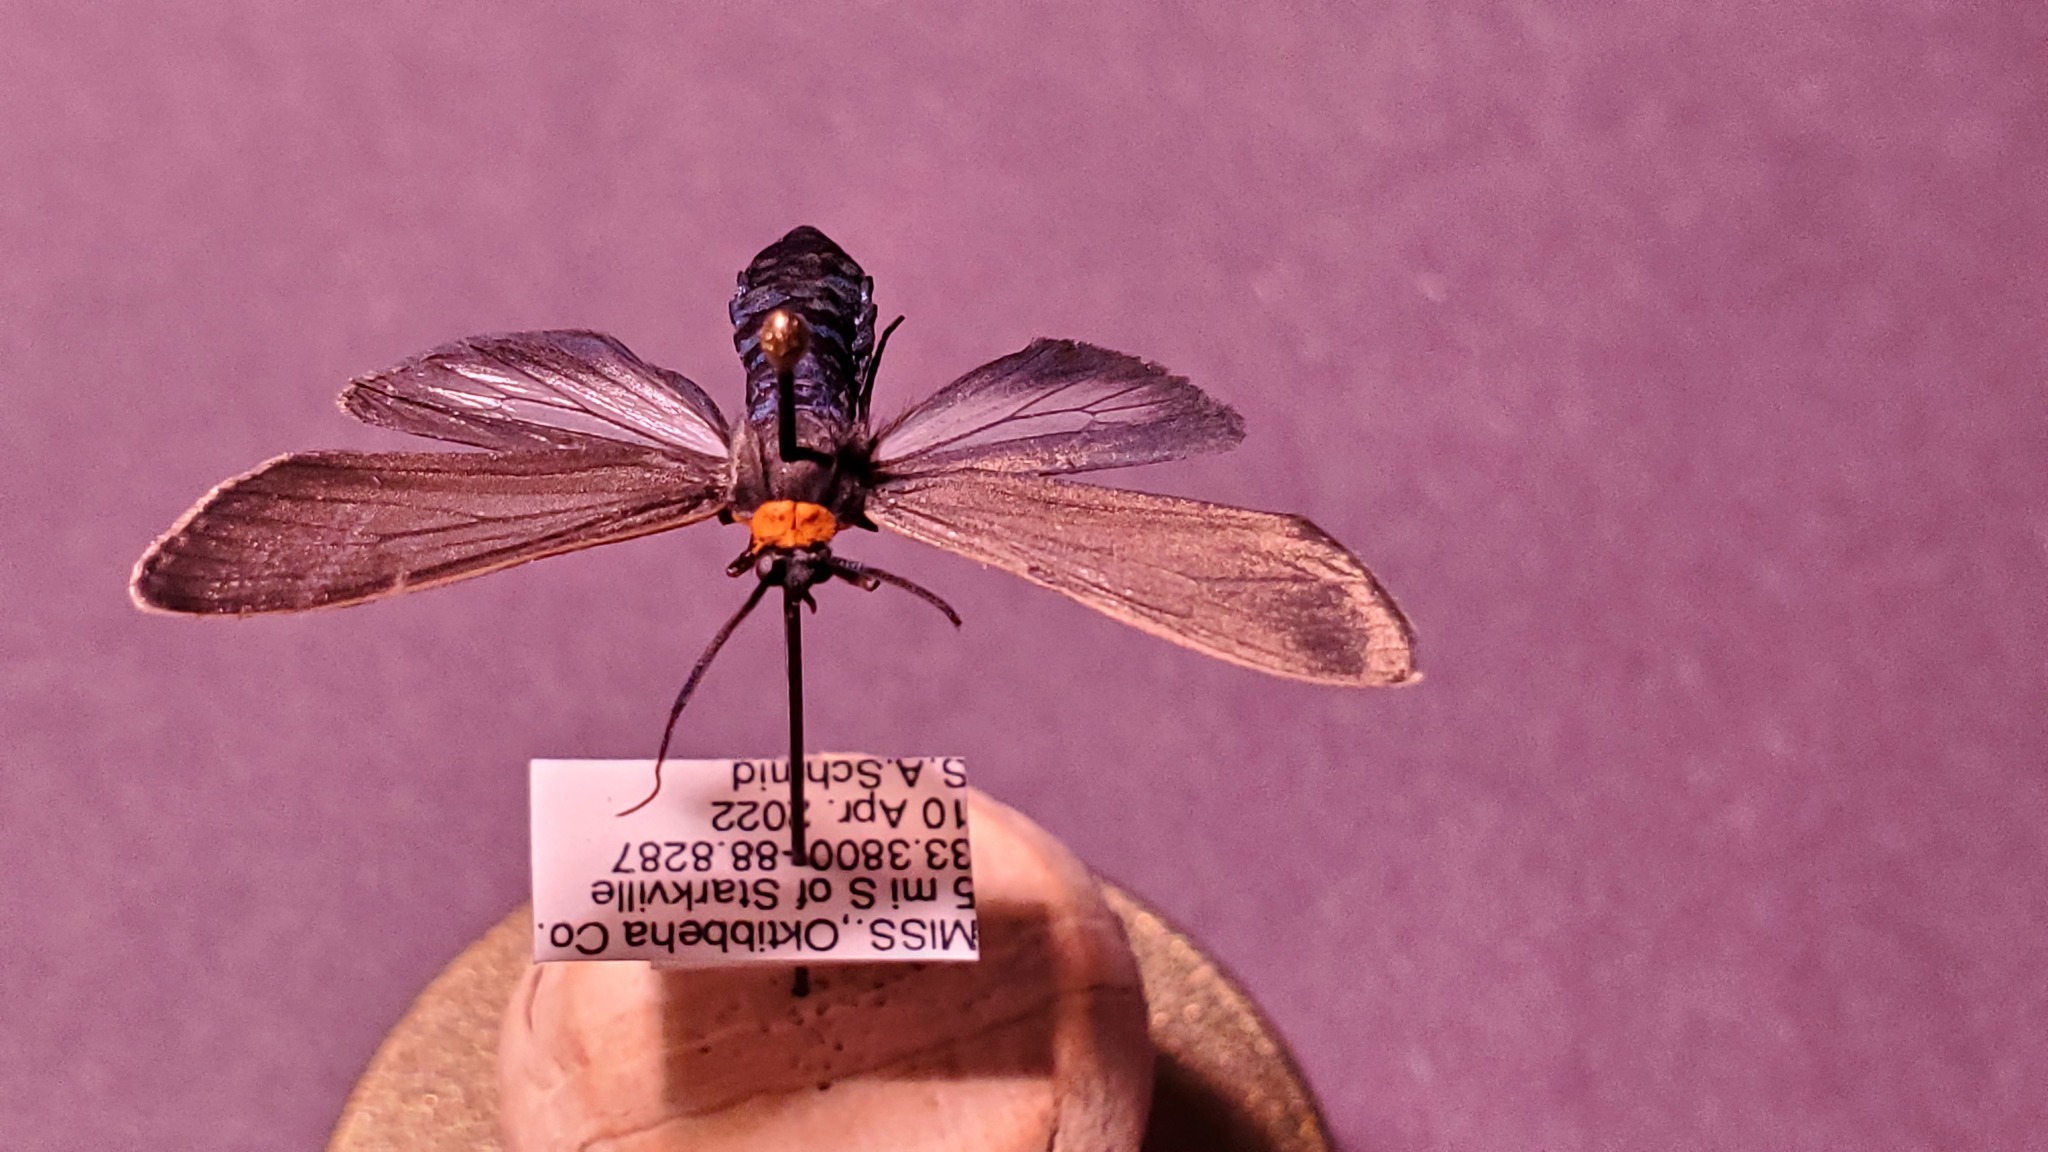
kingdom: Animalia
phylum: Arthropoda
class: Insecta
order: Lepidoptera
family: Erebidae
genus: Cisseps
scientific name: Cisseps fulvicollis
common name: Yellow-collared scape moth
